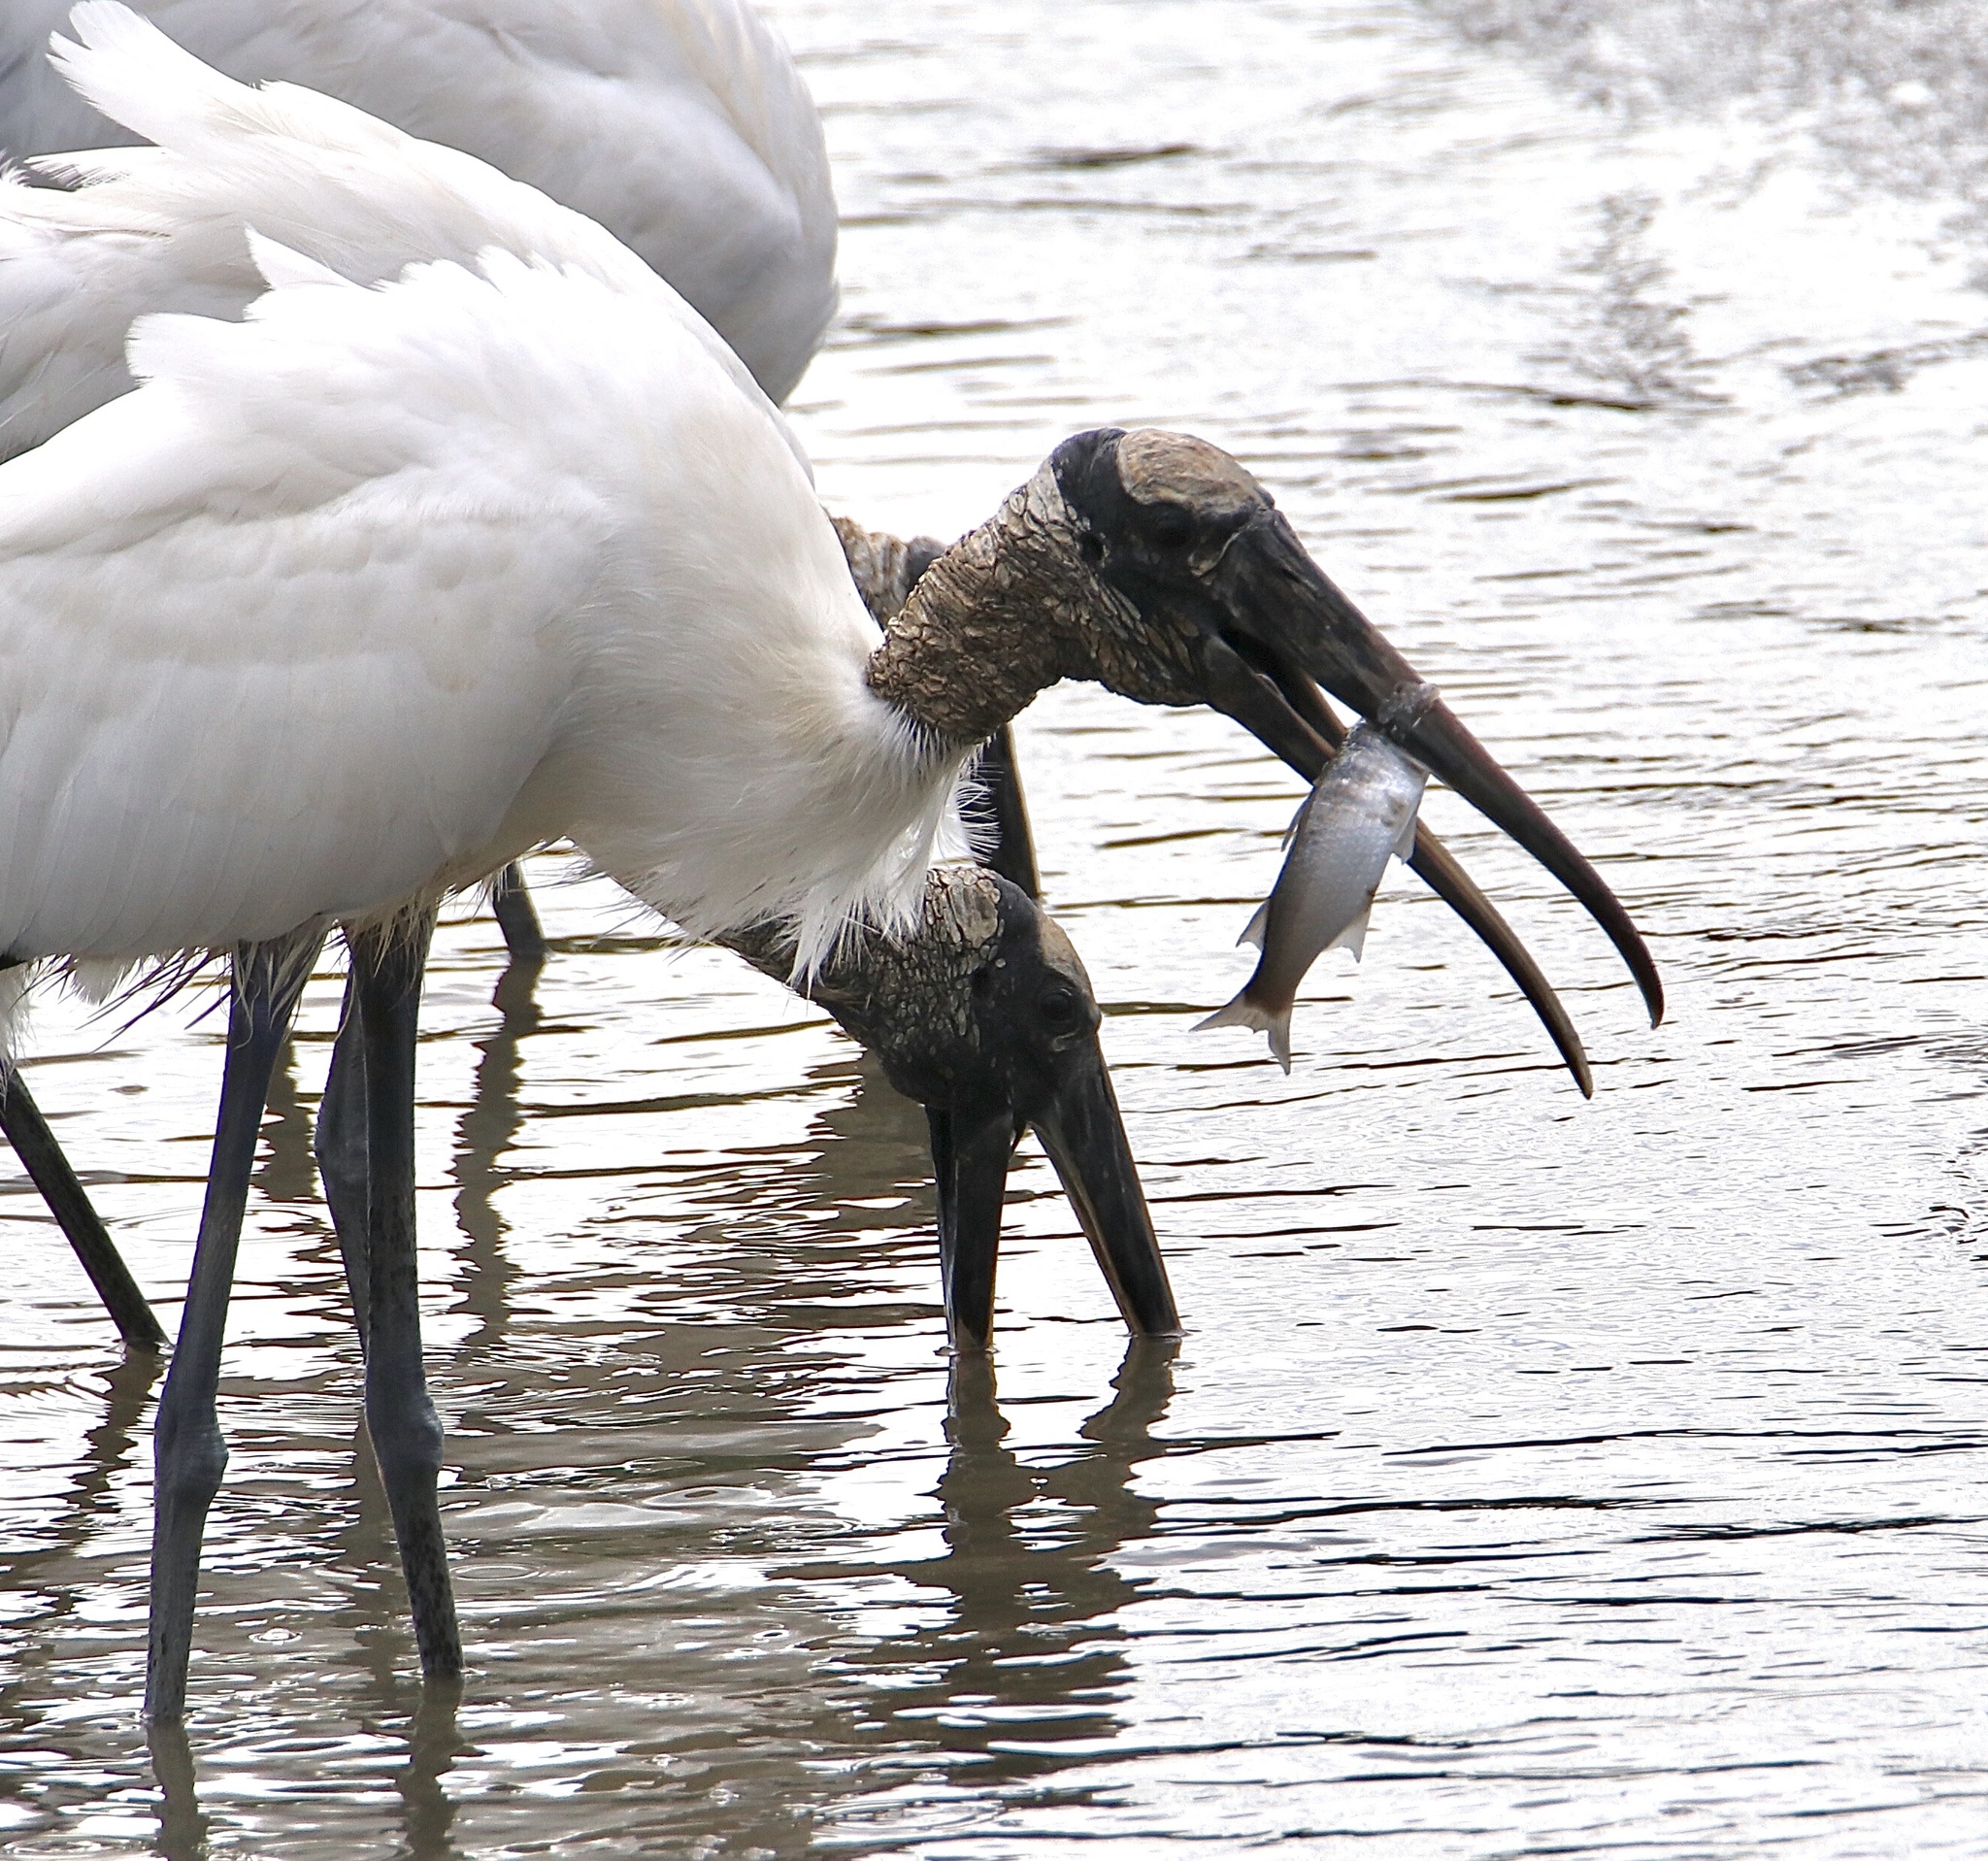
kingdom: Animalia
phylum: Chordata
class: Aves
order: Ciconiiformes
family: Ciconiidae
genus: Mycteria
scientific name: Mycteria americana
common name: Wood stork
